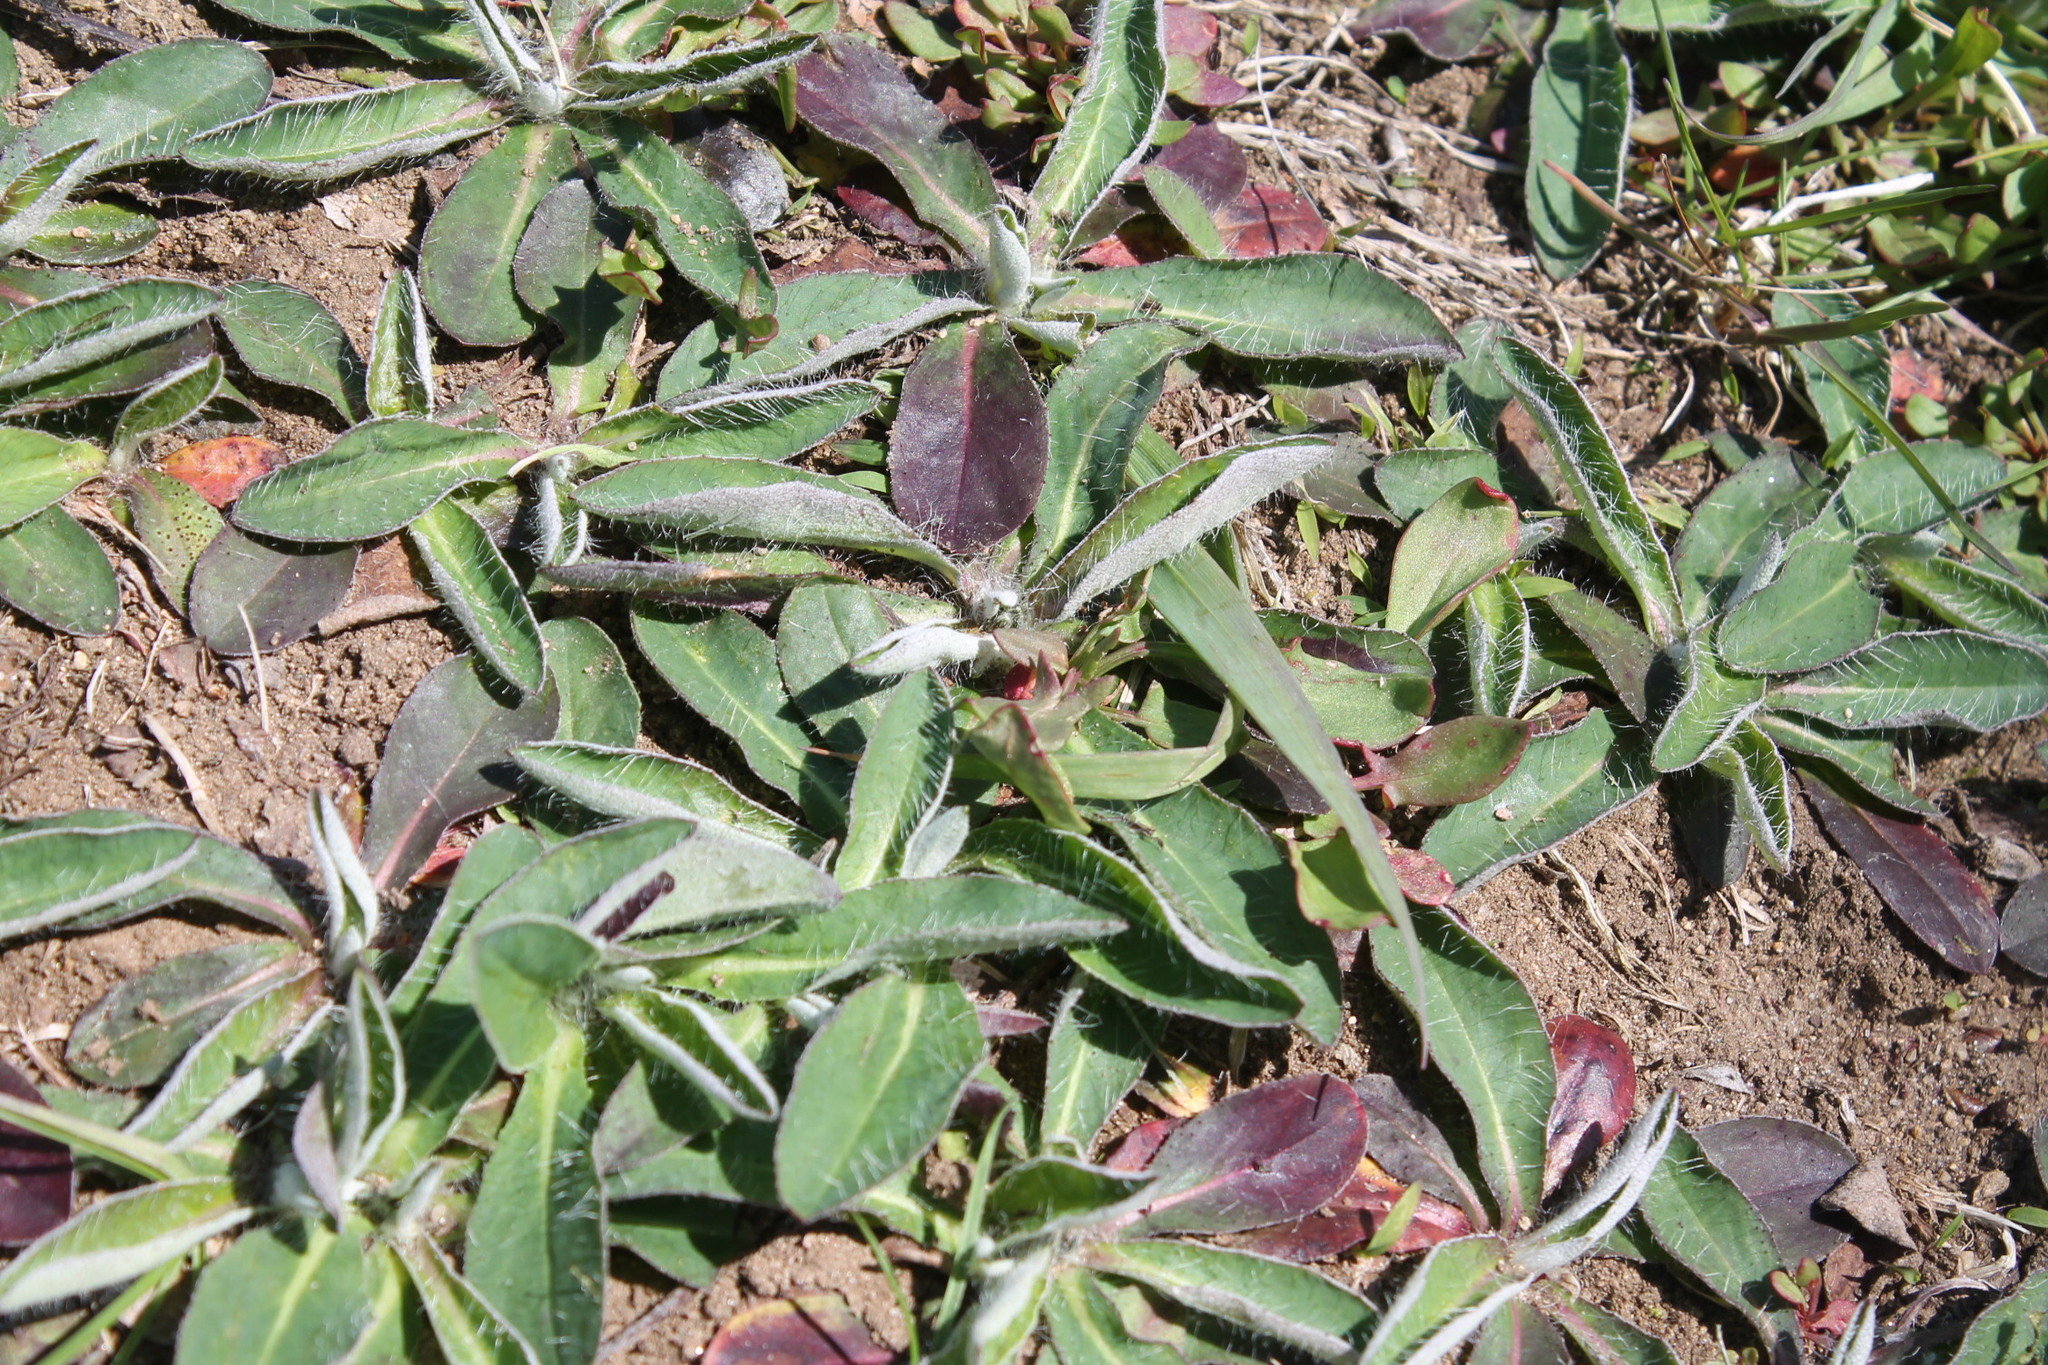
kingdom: Plantae
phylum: Tracheophyta
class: Magnoliopsida
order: Asterales
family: Asteraceae
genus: Pilosella
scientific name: Pilosella officinarum
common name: Mouse-ear hawkweed
